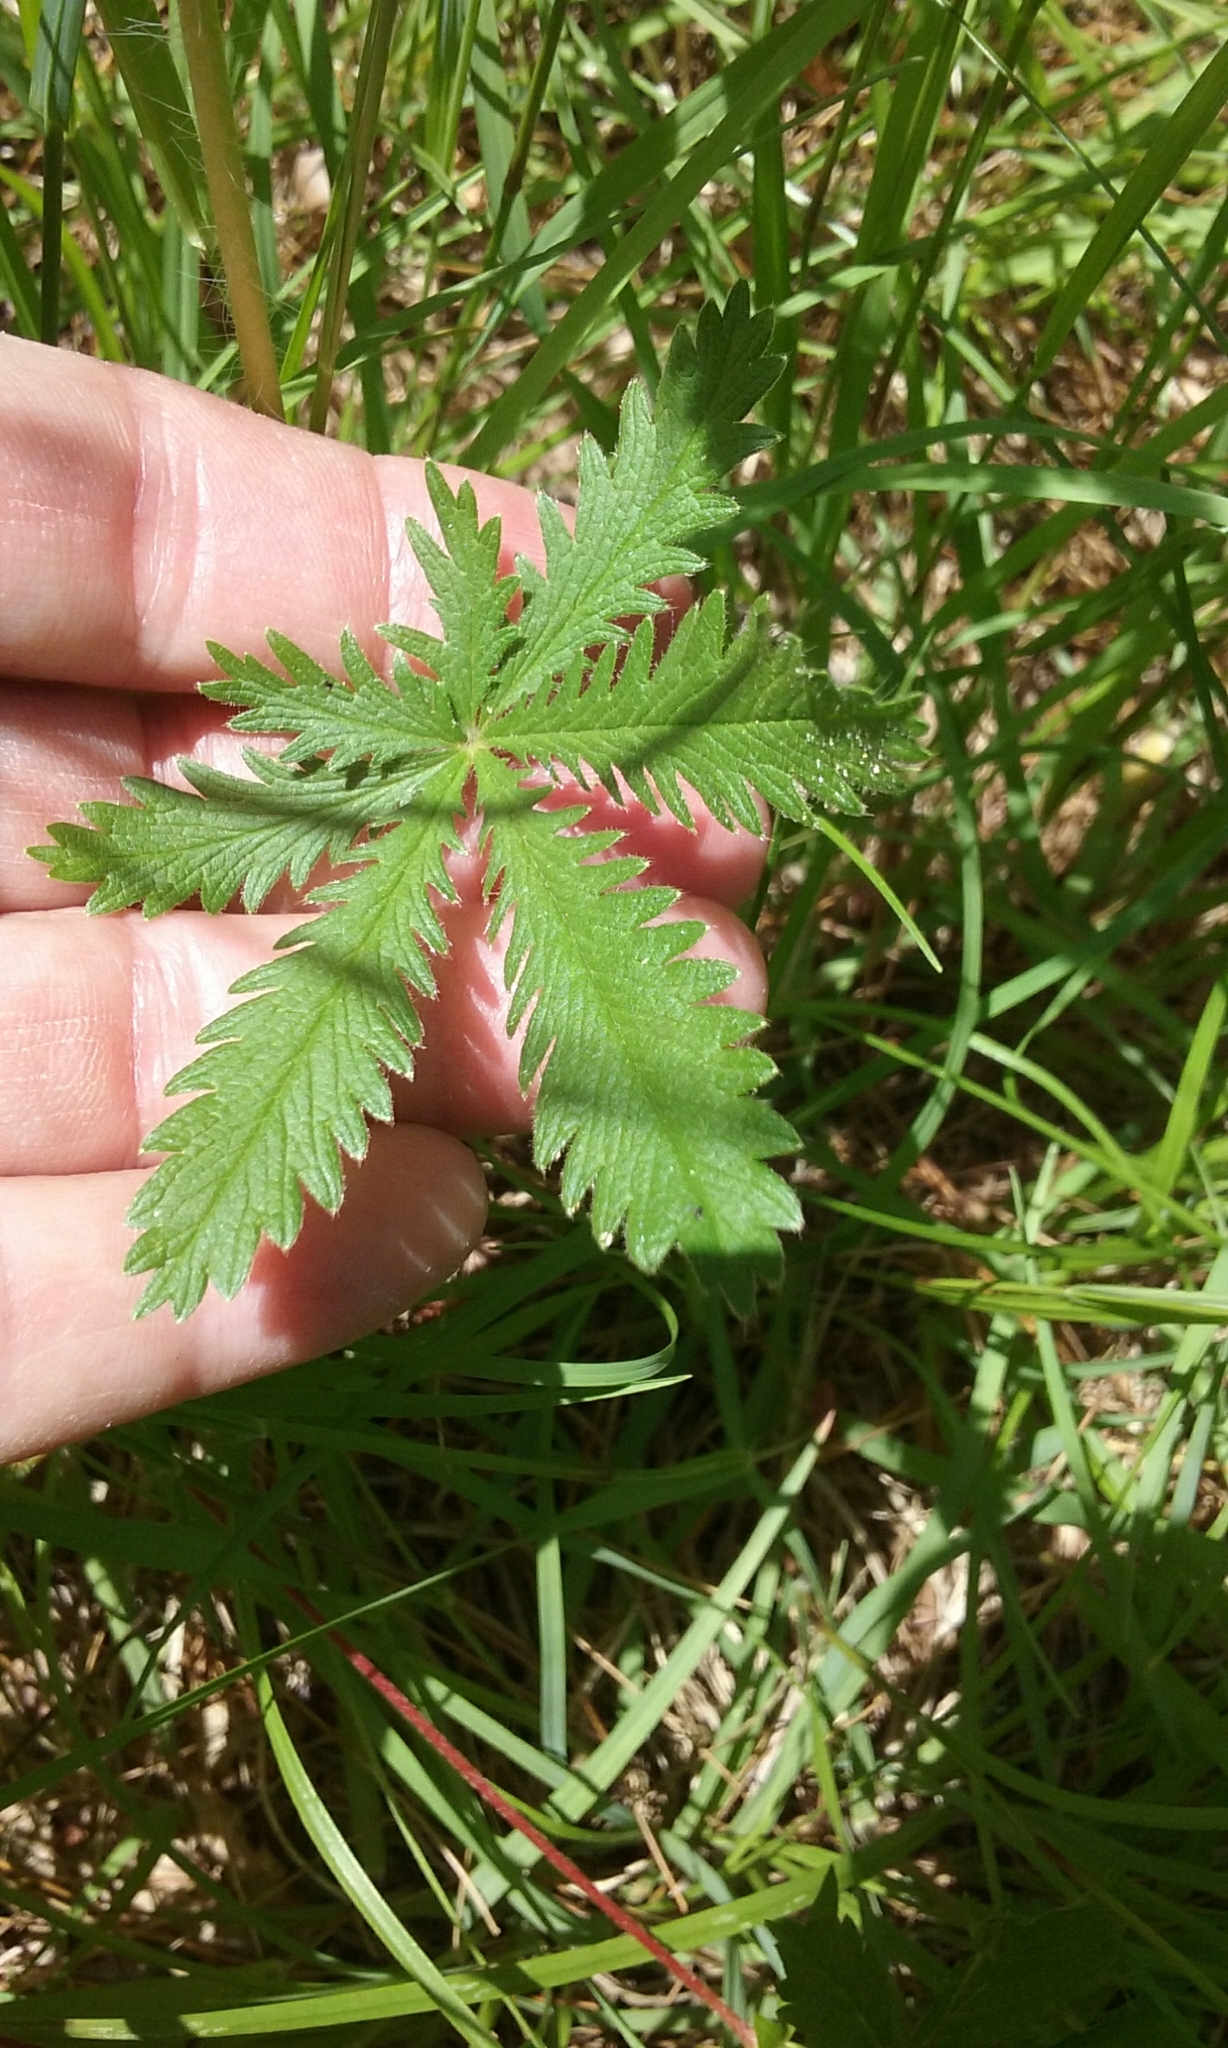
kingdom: Plantae
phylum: Tracheophyta
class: Magnoliopsida
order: Rosales
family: Rosaceae
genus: Potentilla
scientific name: Potentilla recta
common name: Sulphur cinquefoil
